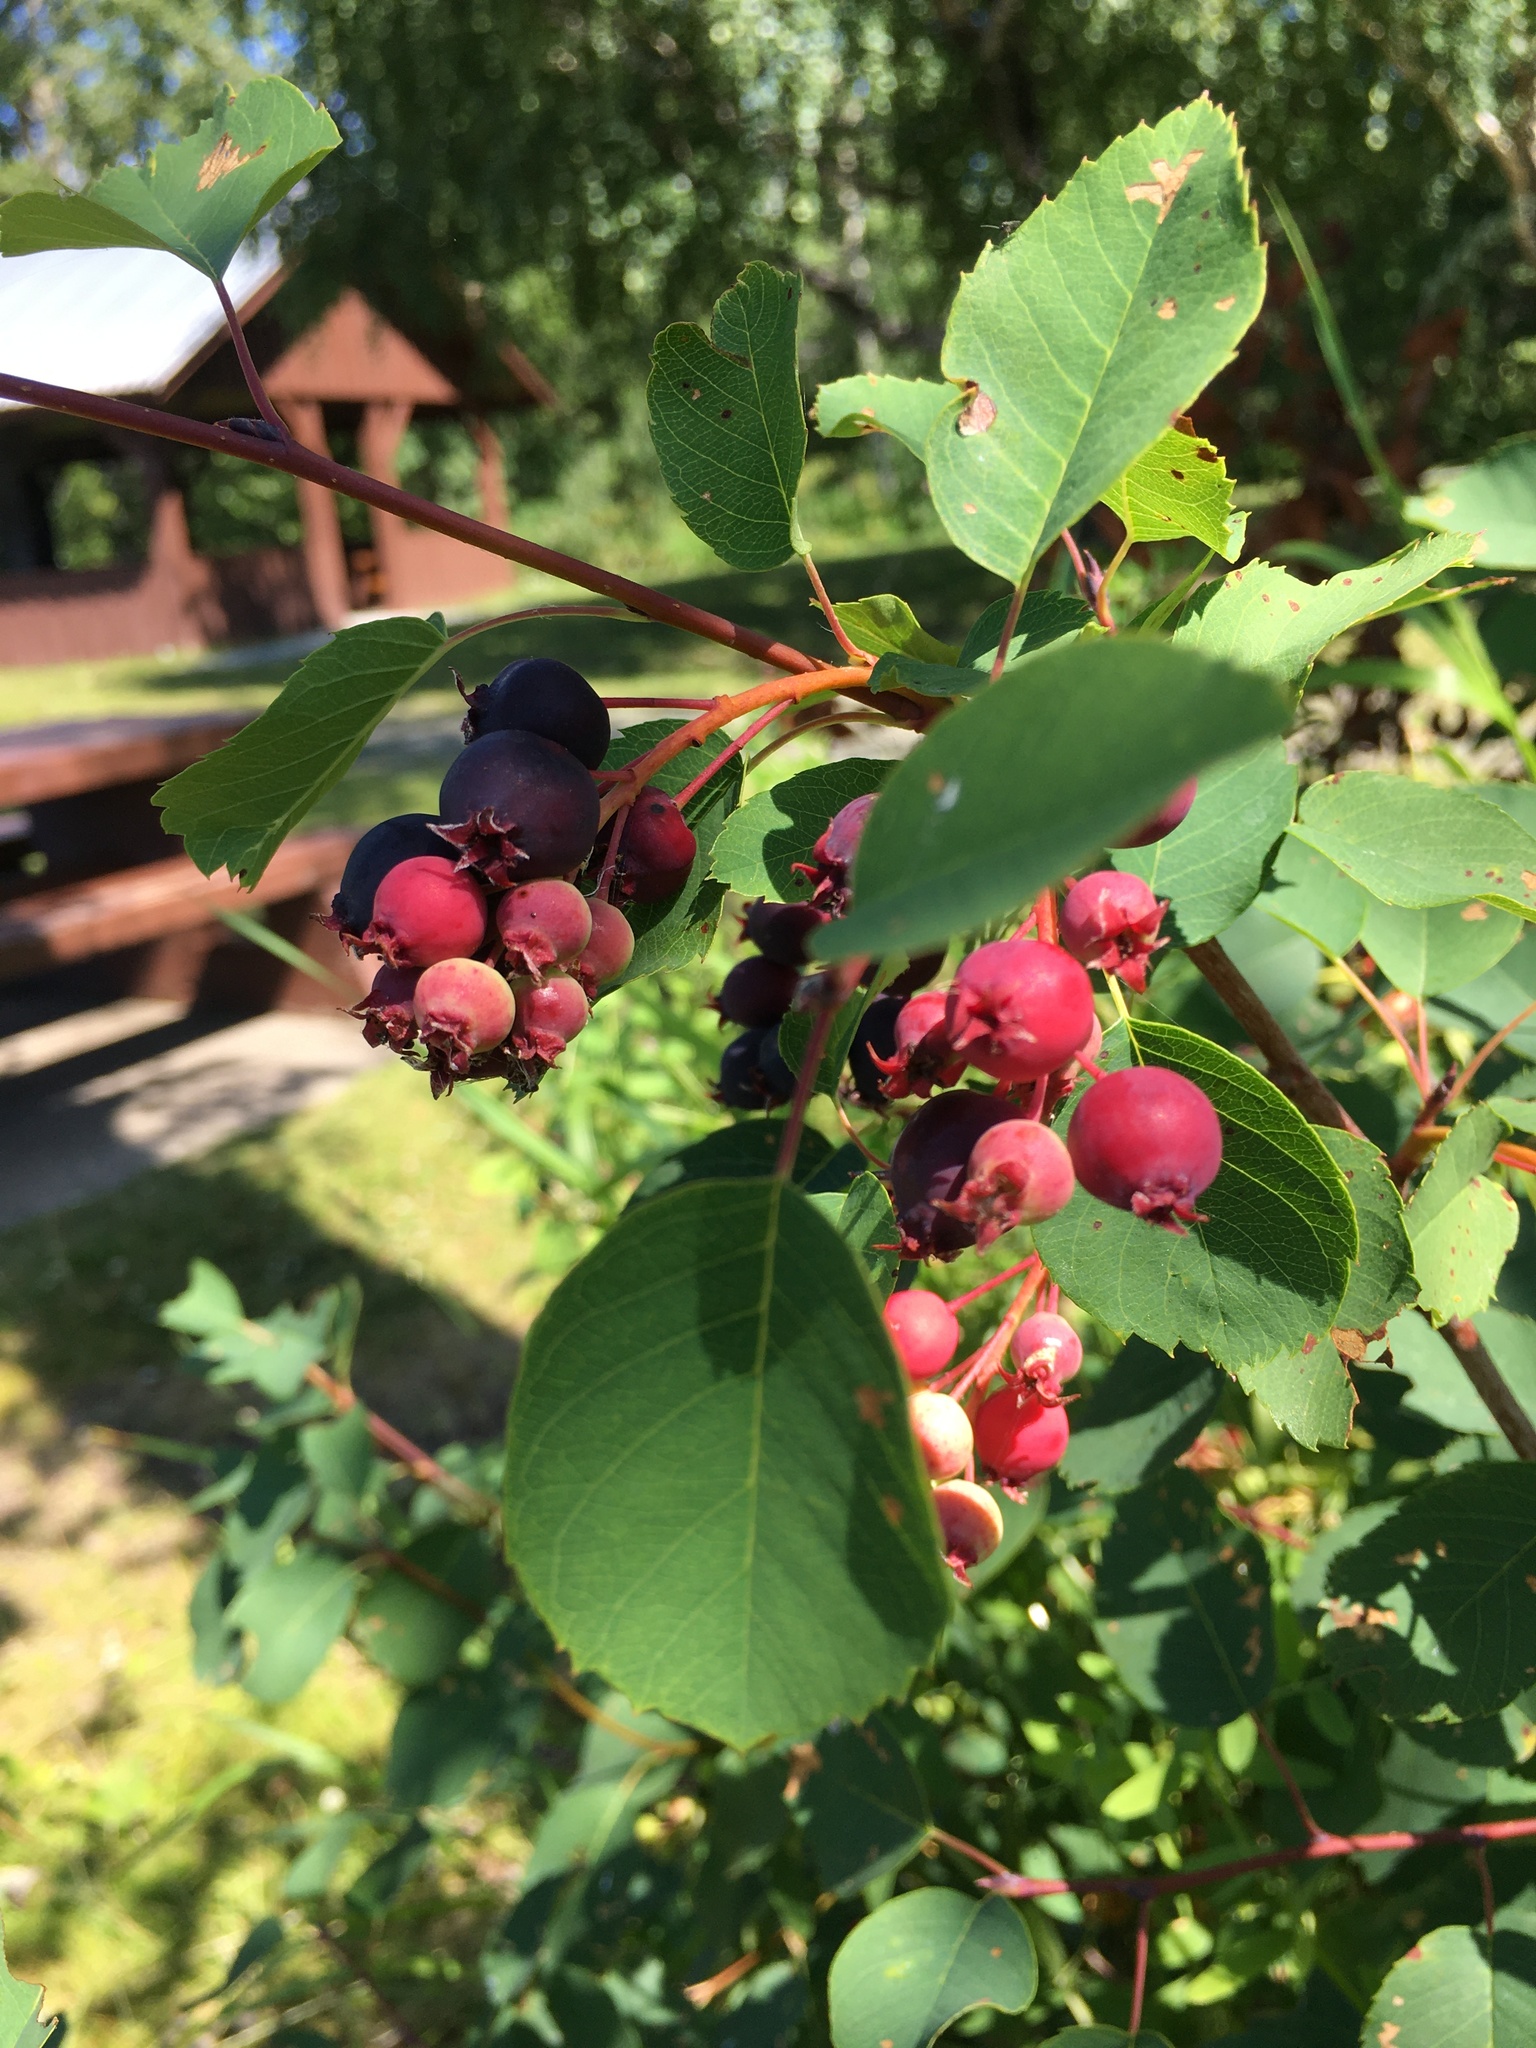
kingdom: Plantae
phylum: Tracheophyta
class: Magnoliopsida
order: Rosales
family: Rosaceae
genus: Amelanchier
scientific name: Amelanchier alnifolia
